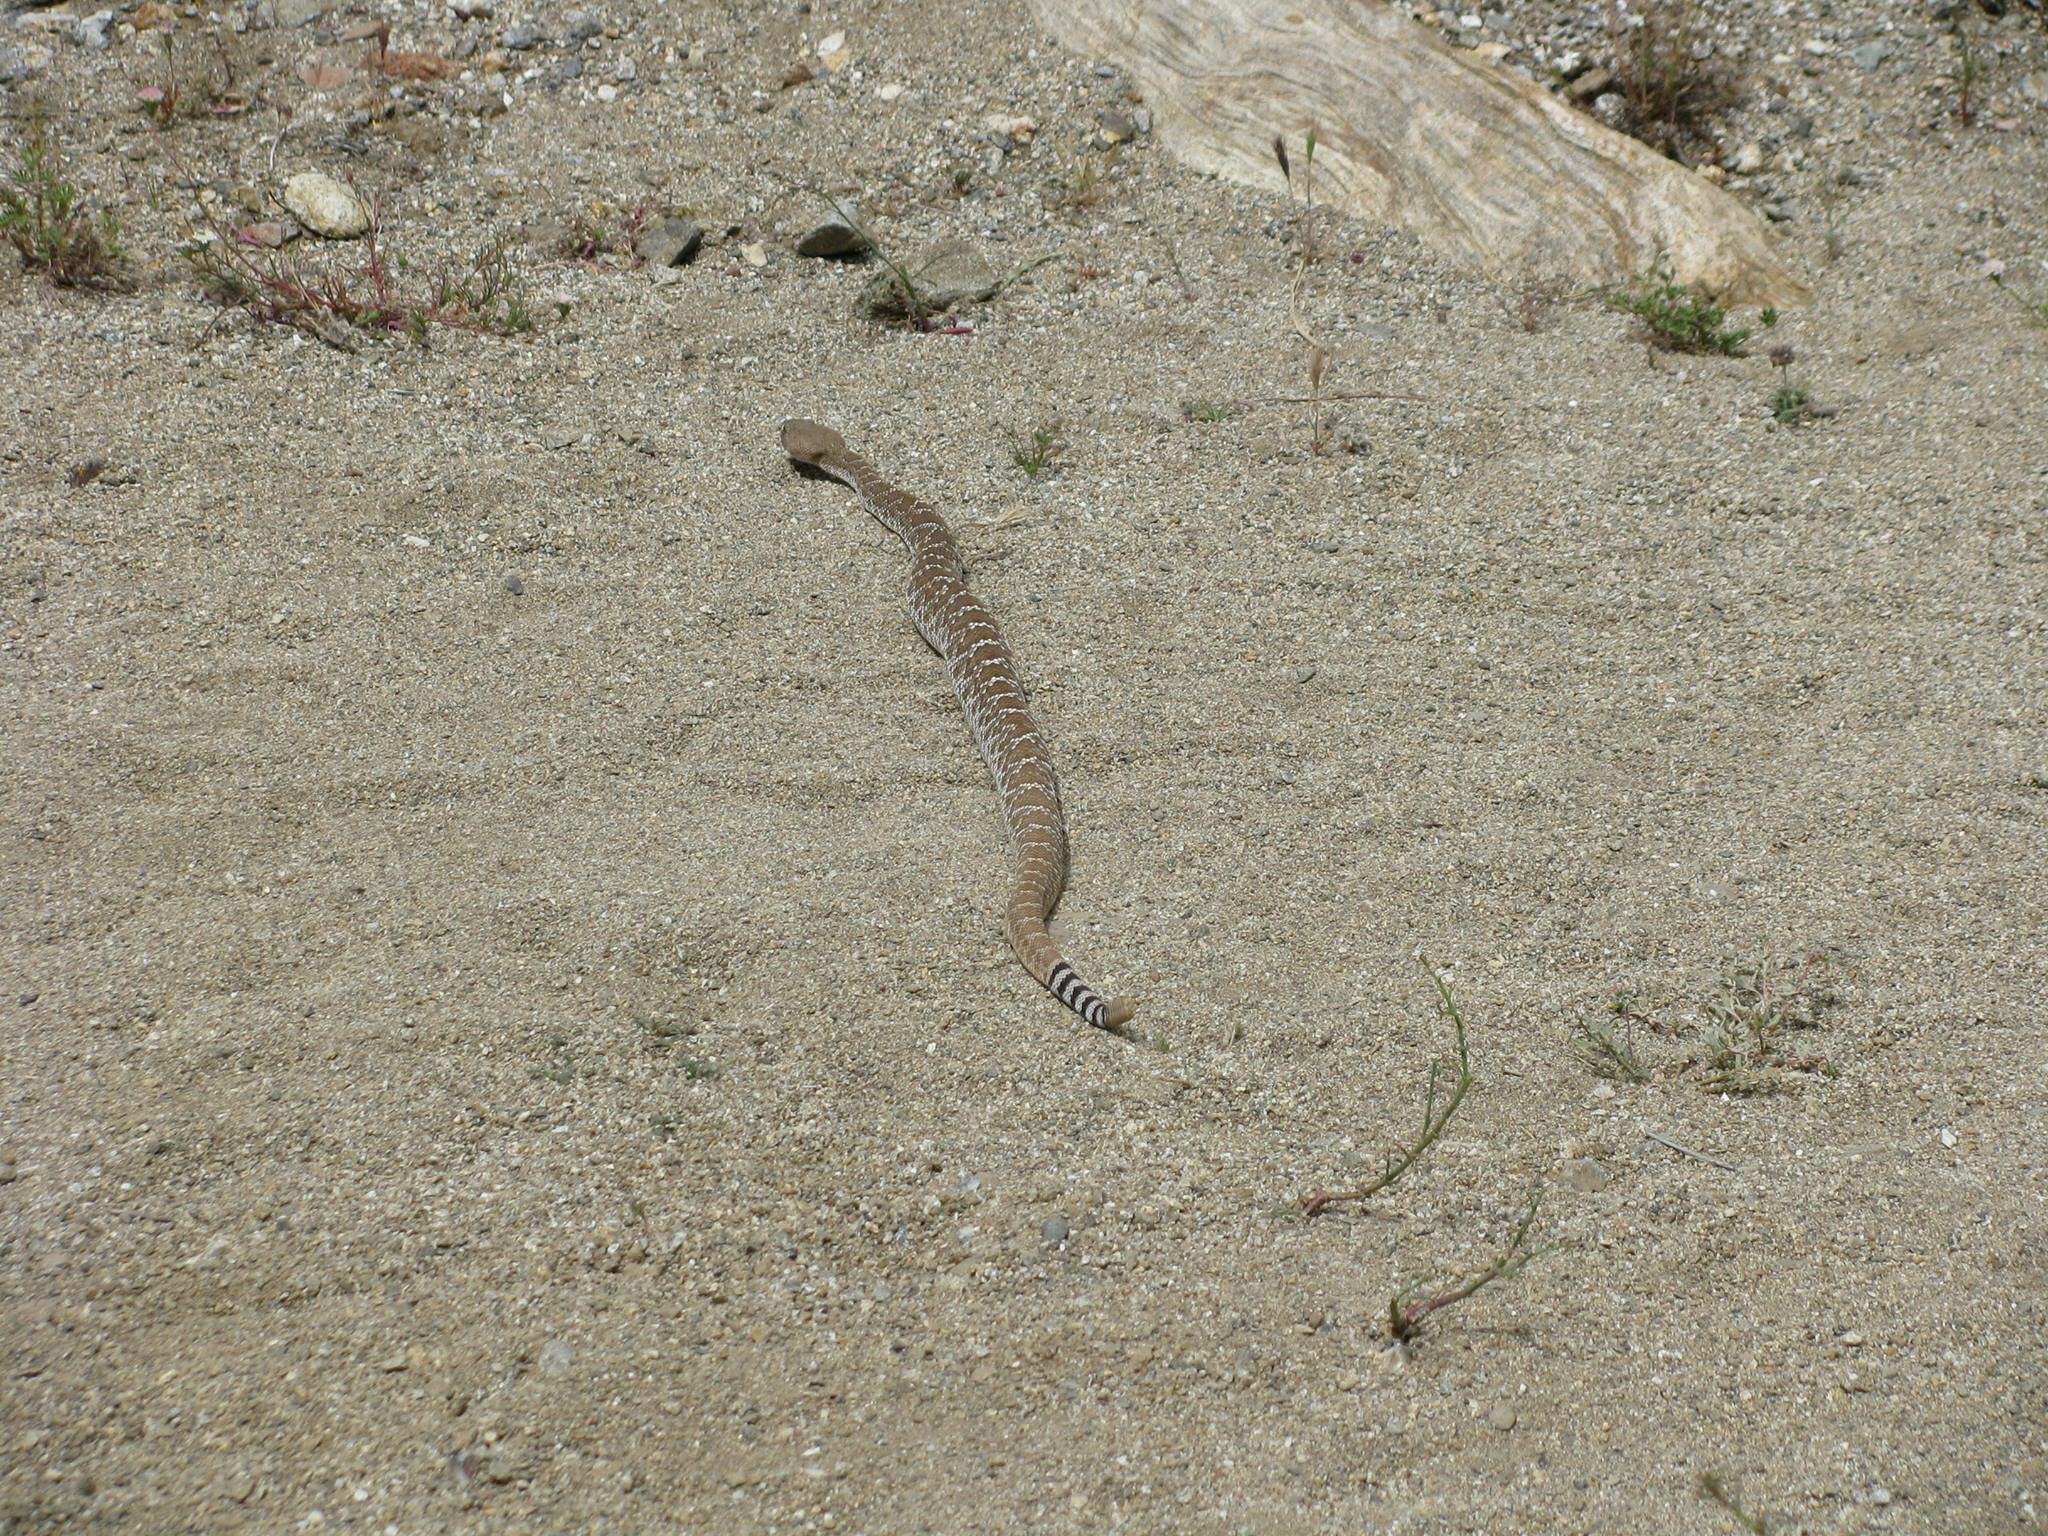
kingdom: Animalia
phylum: Chordata
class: Squamata
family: Viperidae
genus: Crotalus
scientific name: Crotalus ruber
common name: Red diamond rattlesnake
